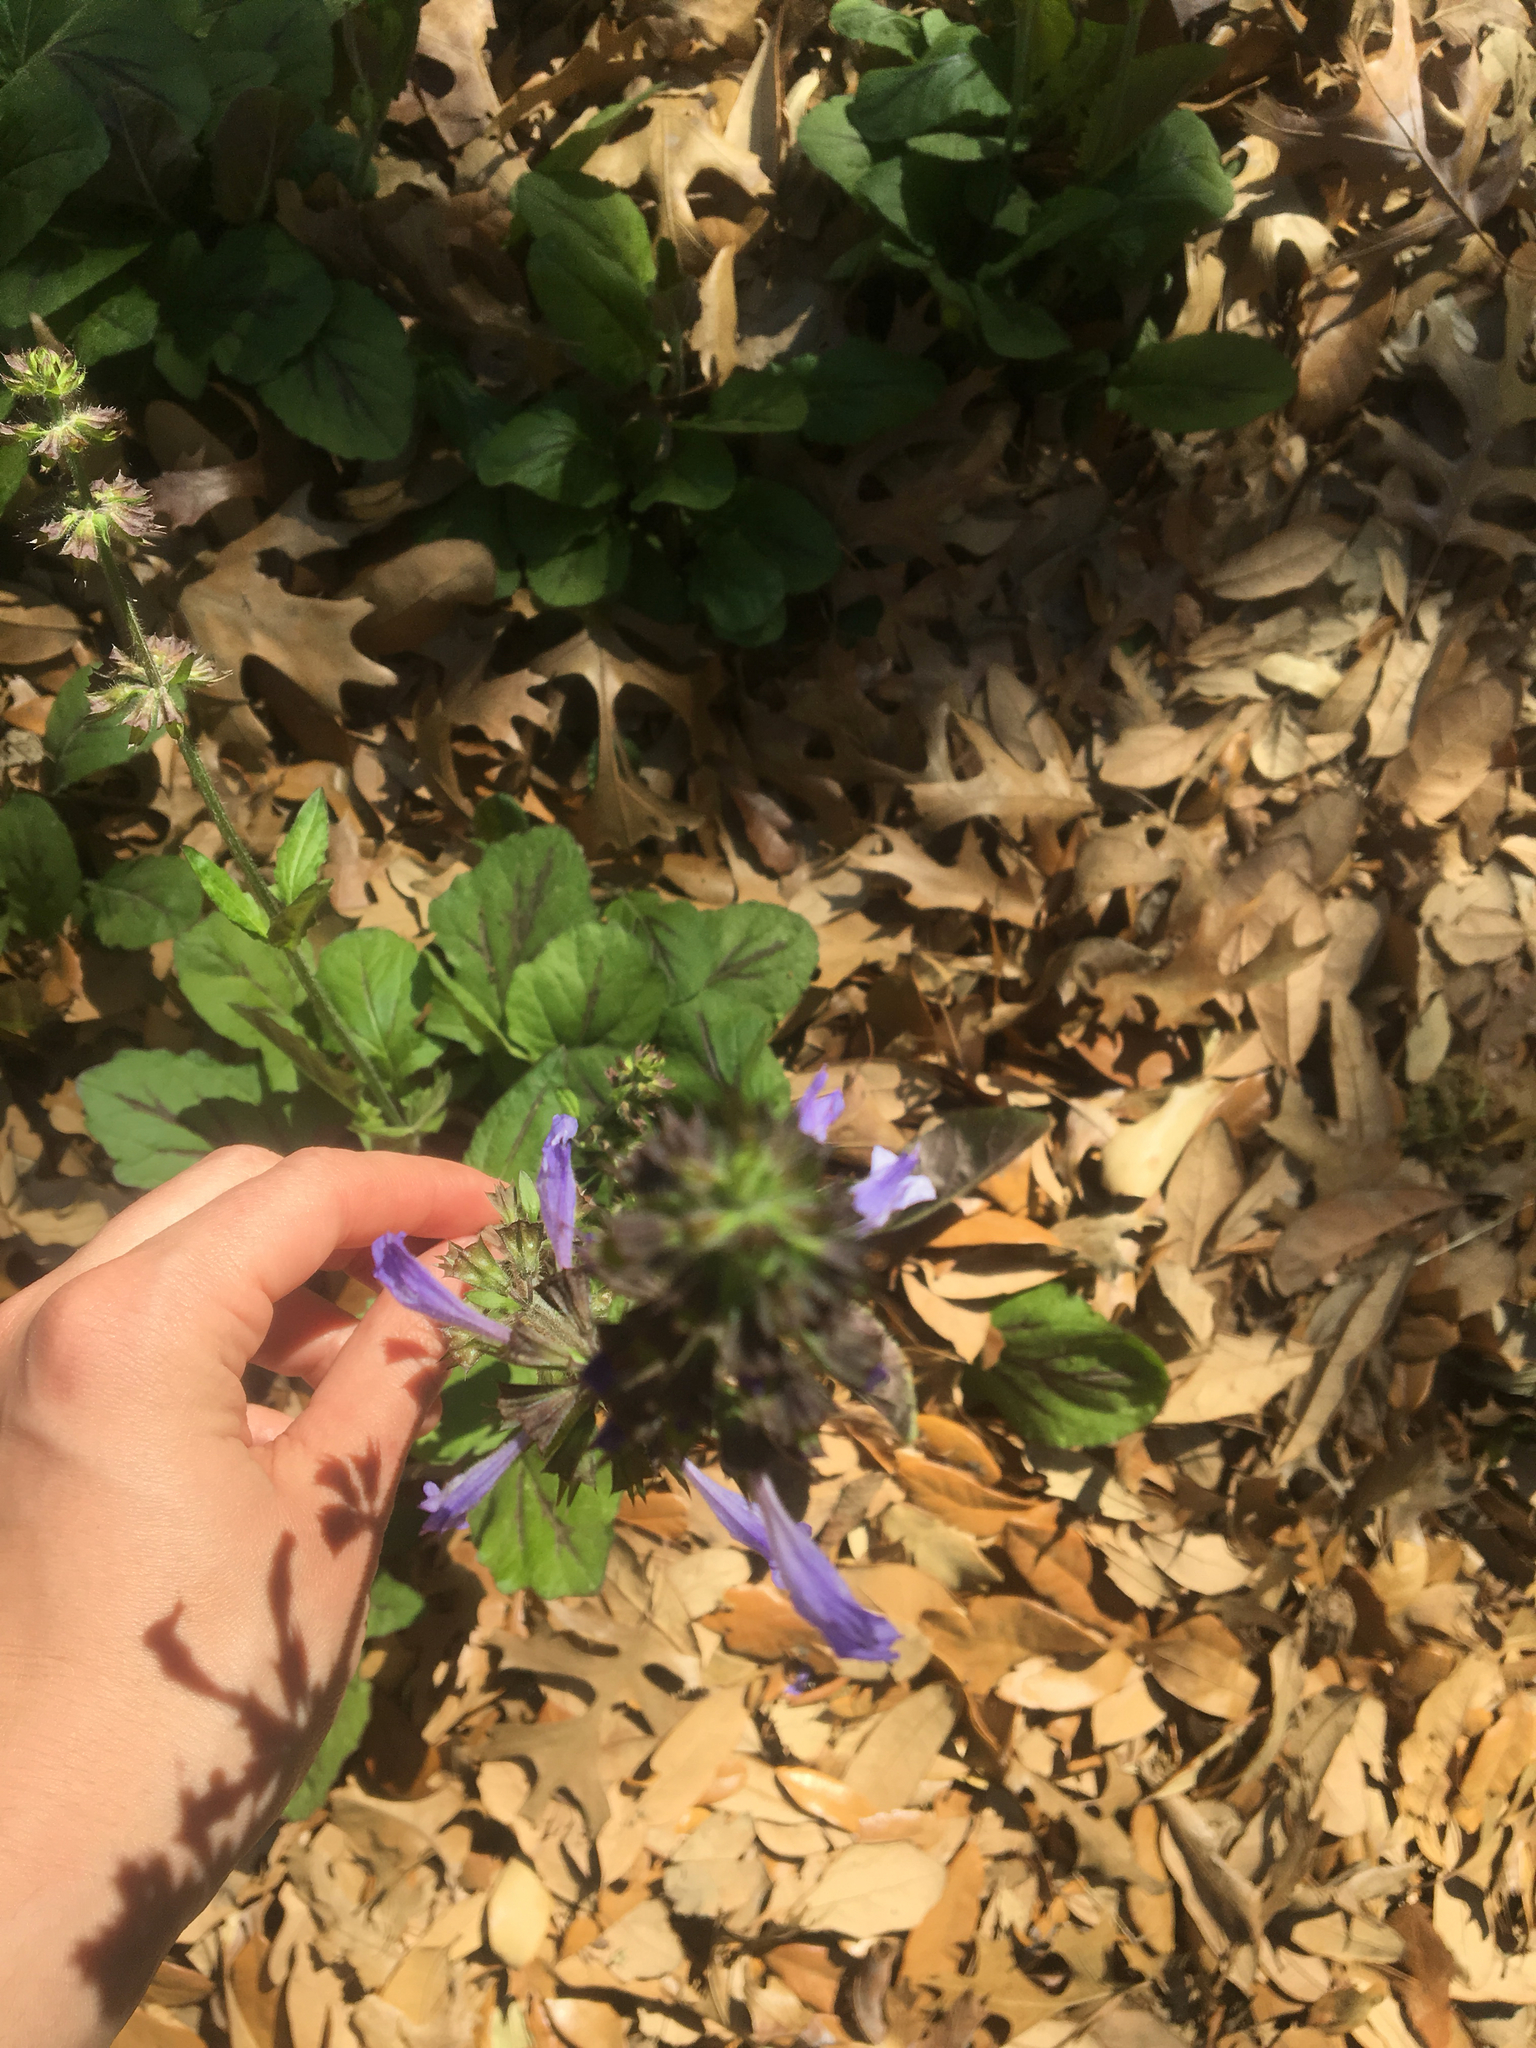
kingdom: Plantae
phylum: Tracheophyta
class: Magnoliopsida
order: Lamiales
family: Lamiaceae
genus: Salvia
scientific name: Salvia lyrata
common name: Cancerweed
